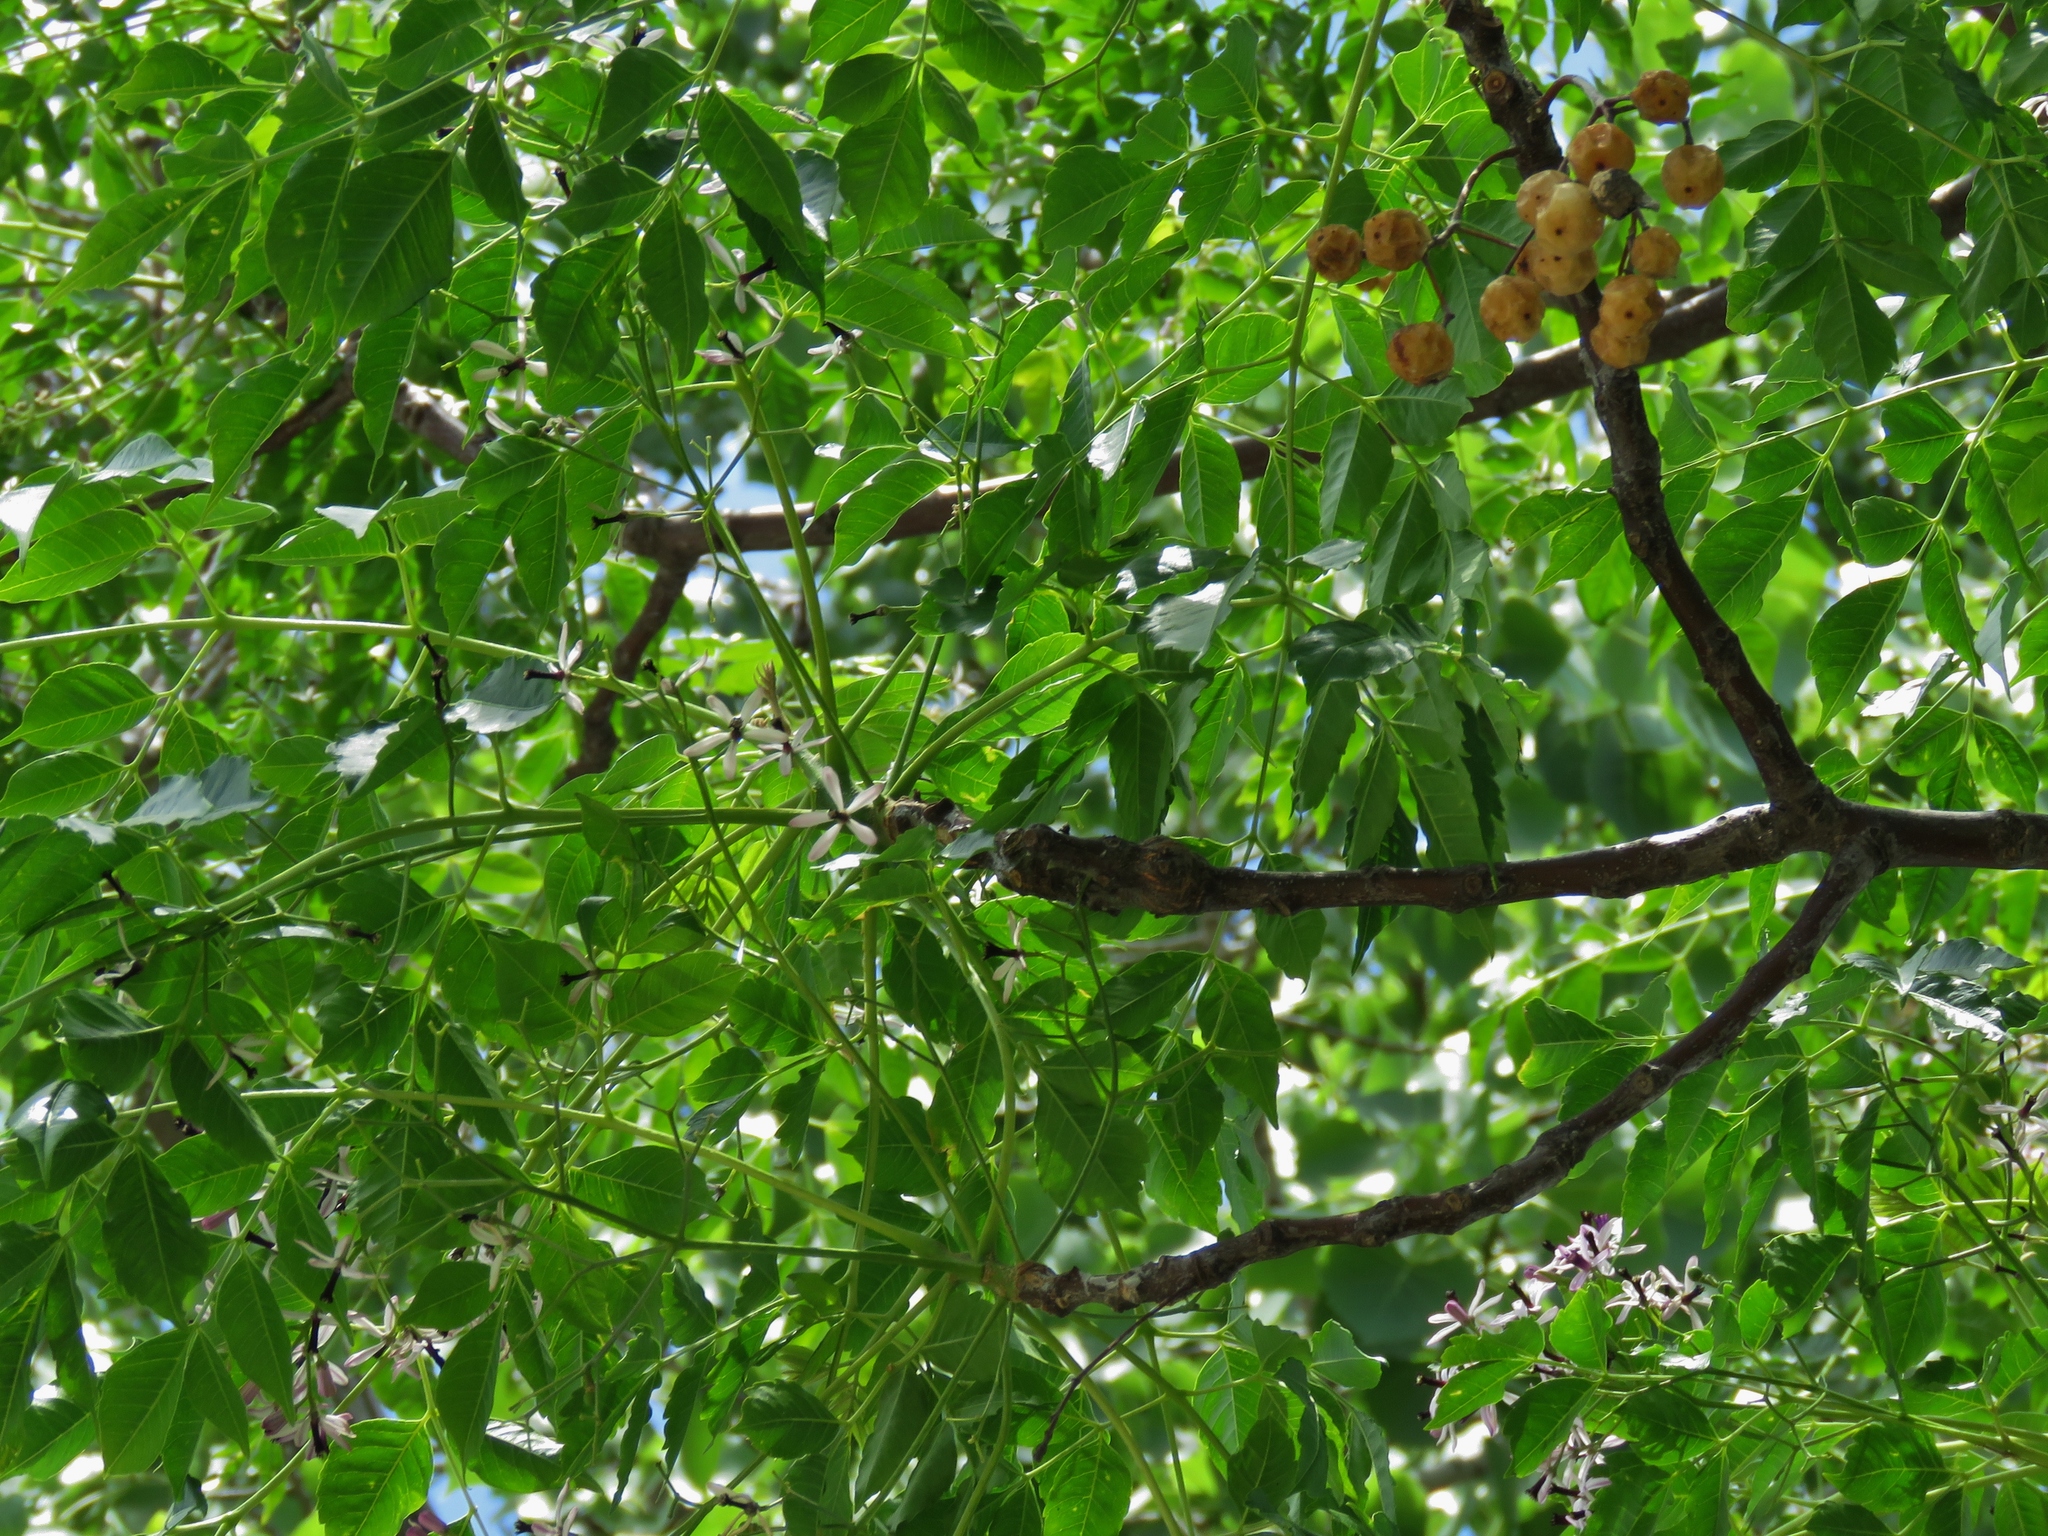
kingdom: Plantae
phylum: Tracheophyta
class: Magnoliopsida
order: Sapindales
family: Meliaceae
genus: Melia
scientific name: Melia azedarach
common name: Chinaberrytree
